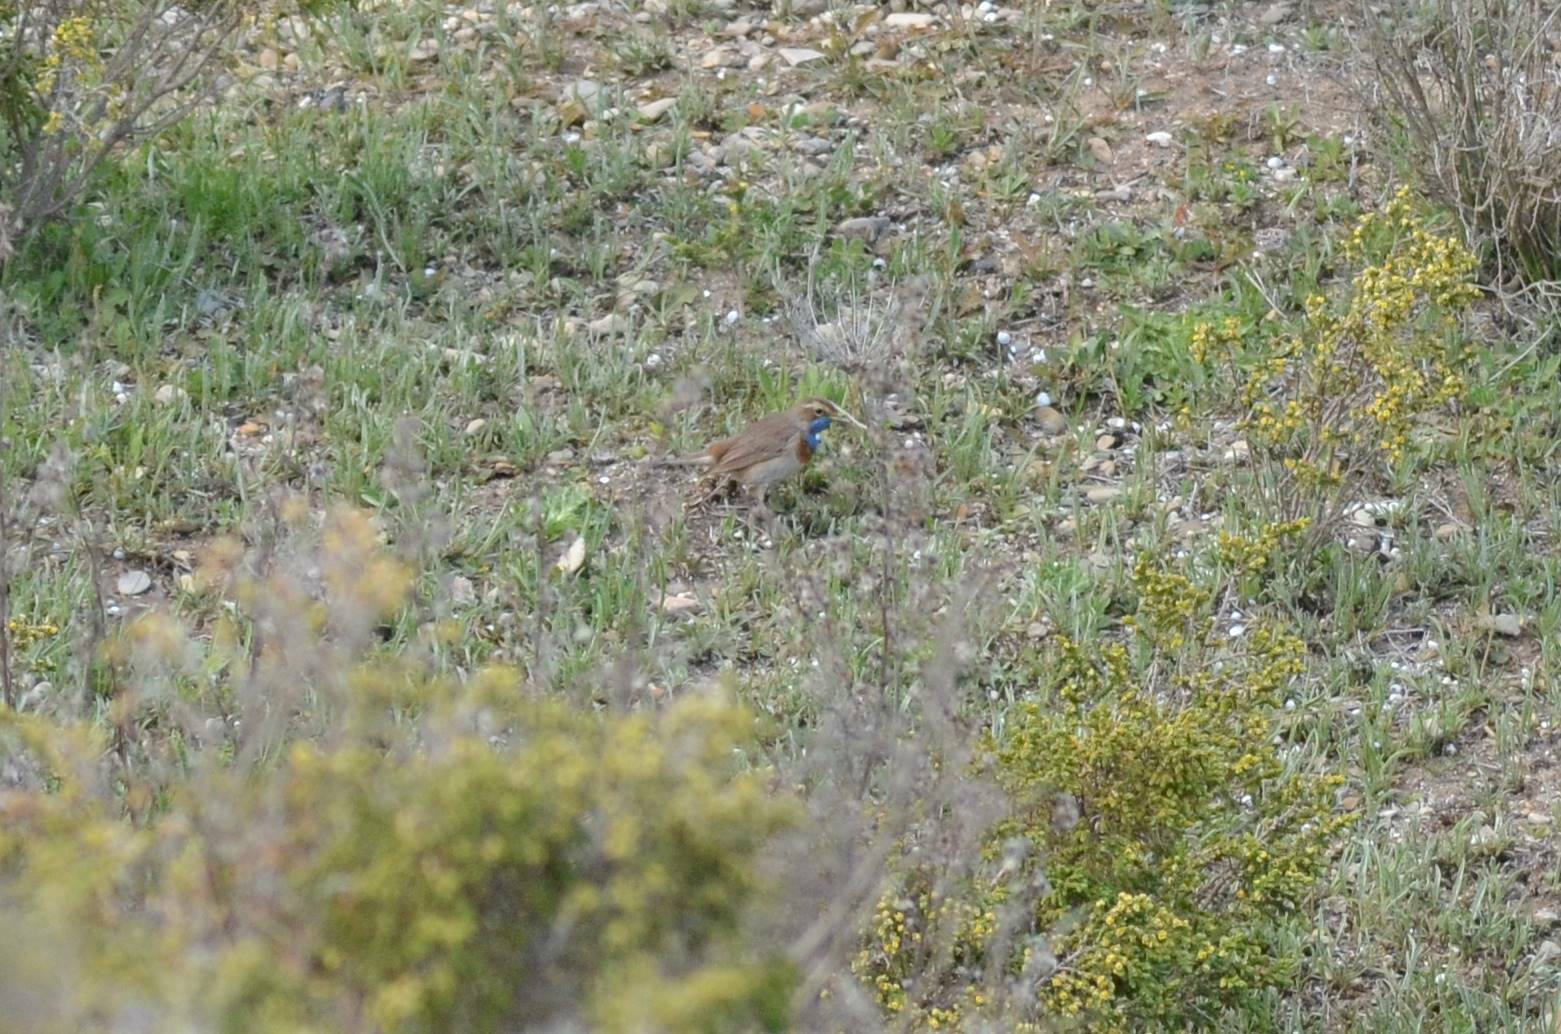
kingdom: Animalia
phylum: Chordata
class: Aves
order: Passeriformes
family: Muscicapidae
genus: Luscinia
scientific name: Luscinia svecica
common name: Bluethroat
